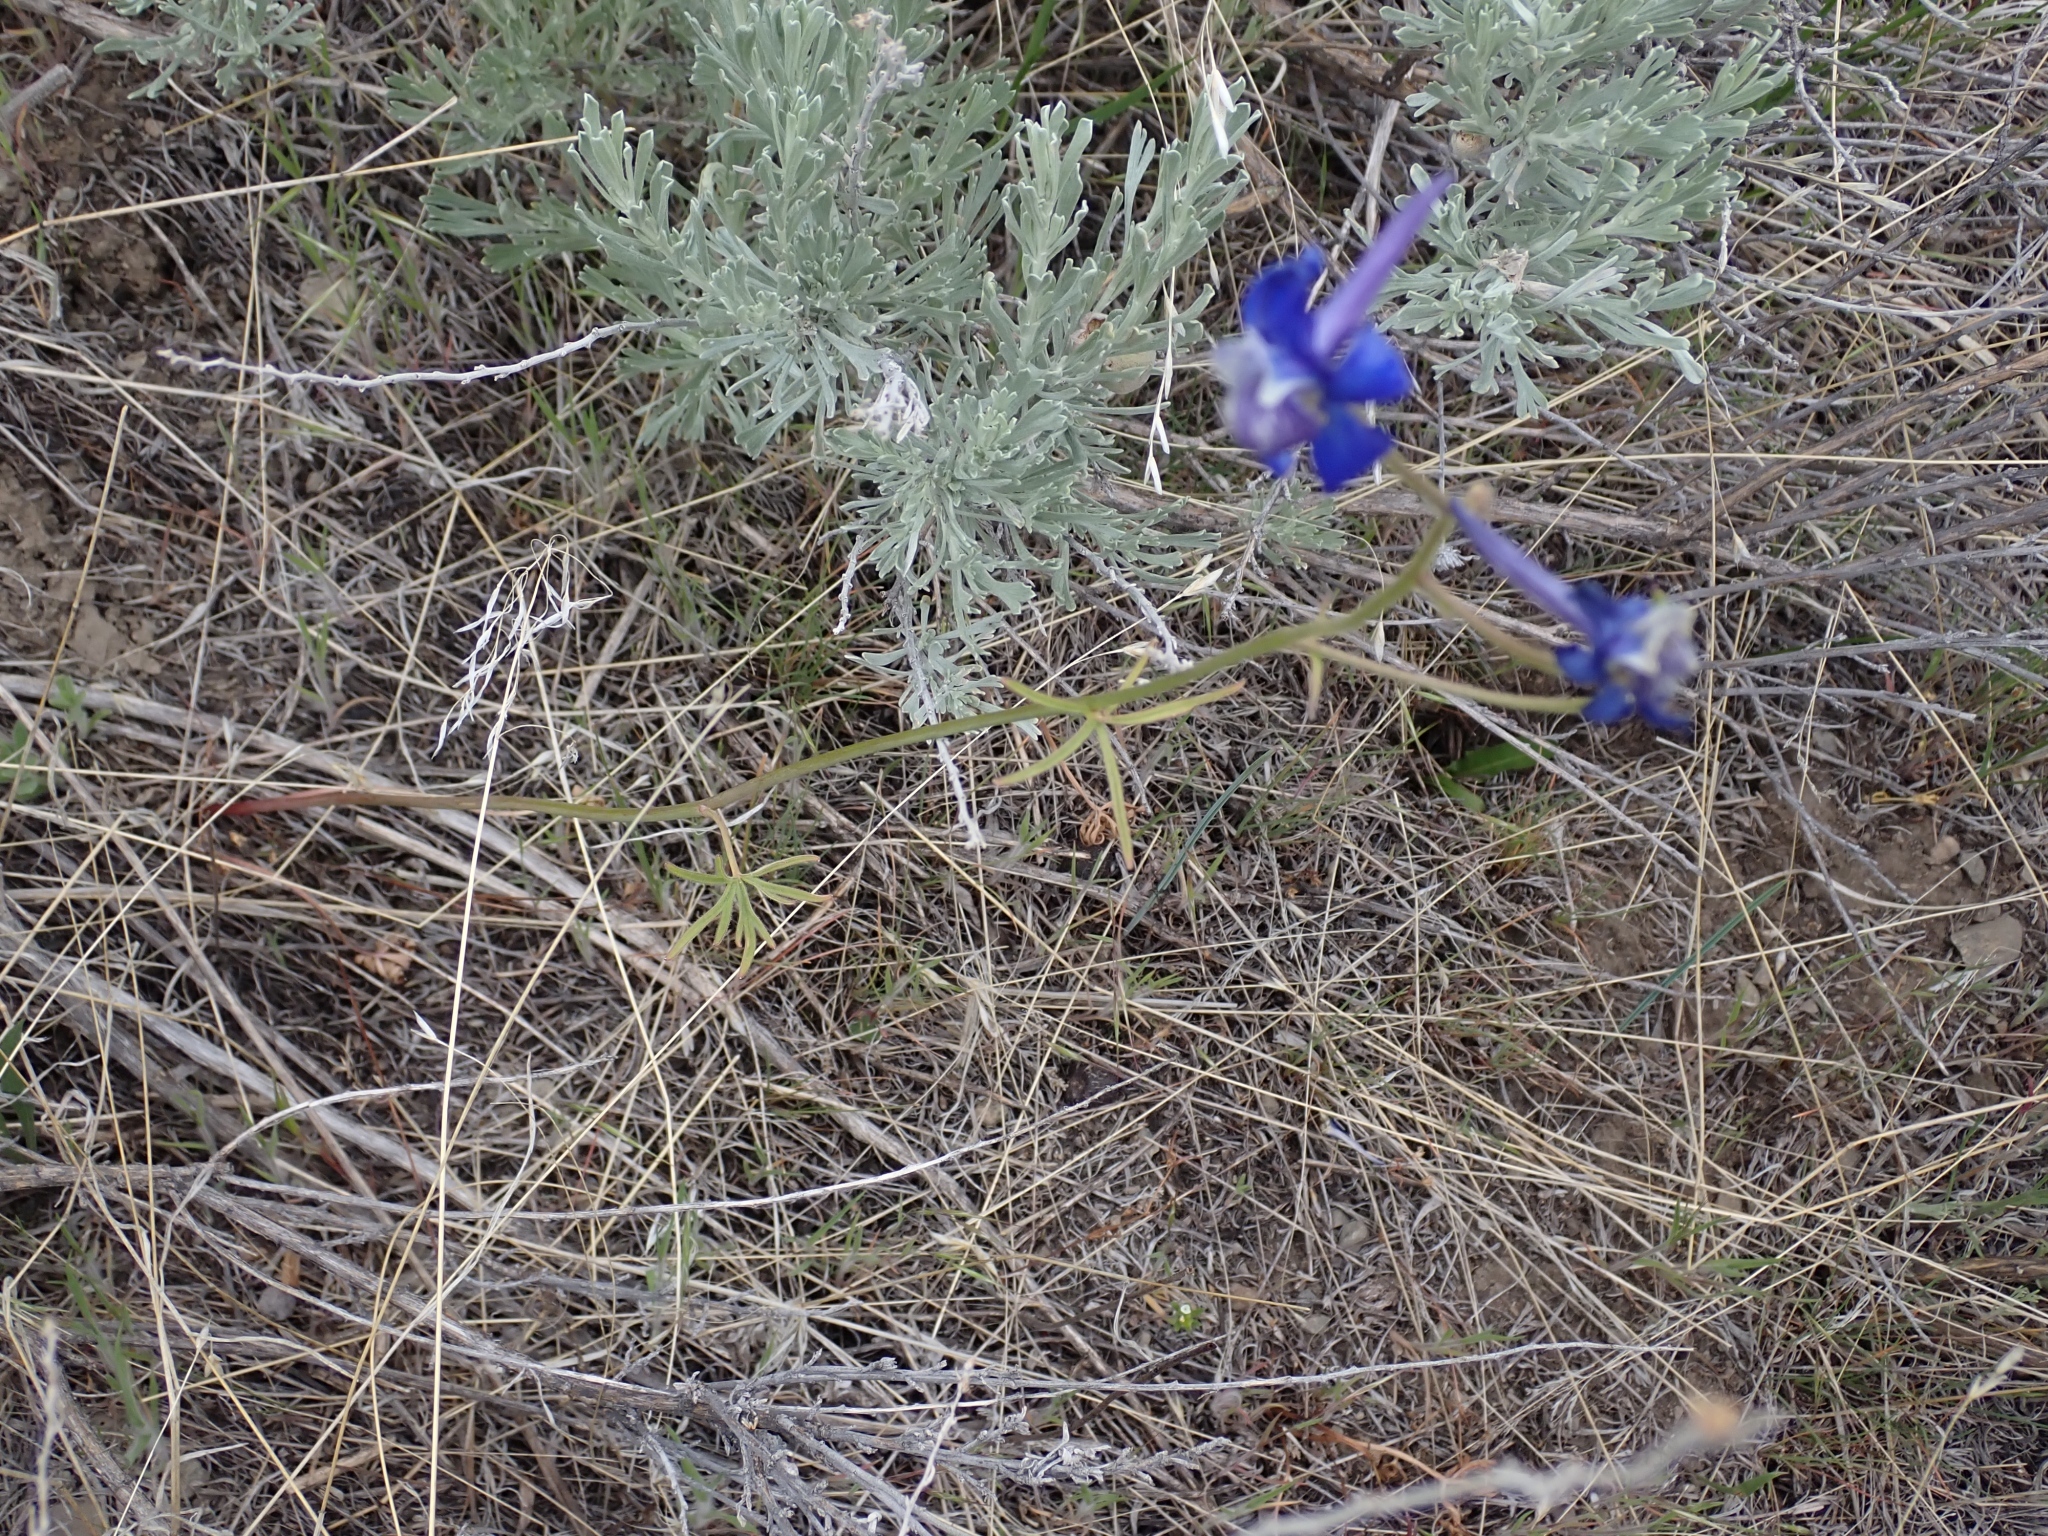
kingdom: Plantae
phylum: Tracheophyta
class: Magnoliopsida
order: Ranunculales
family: Ranunculaceae
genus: Delphinium
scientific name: Delphinium nuttallianum
